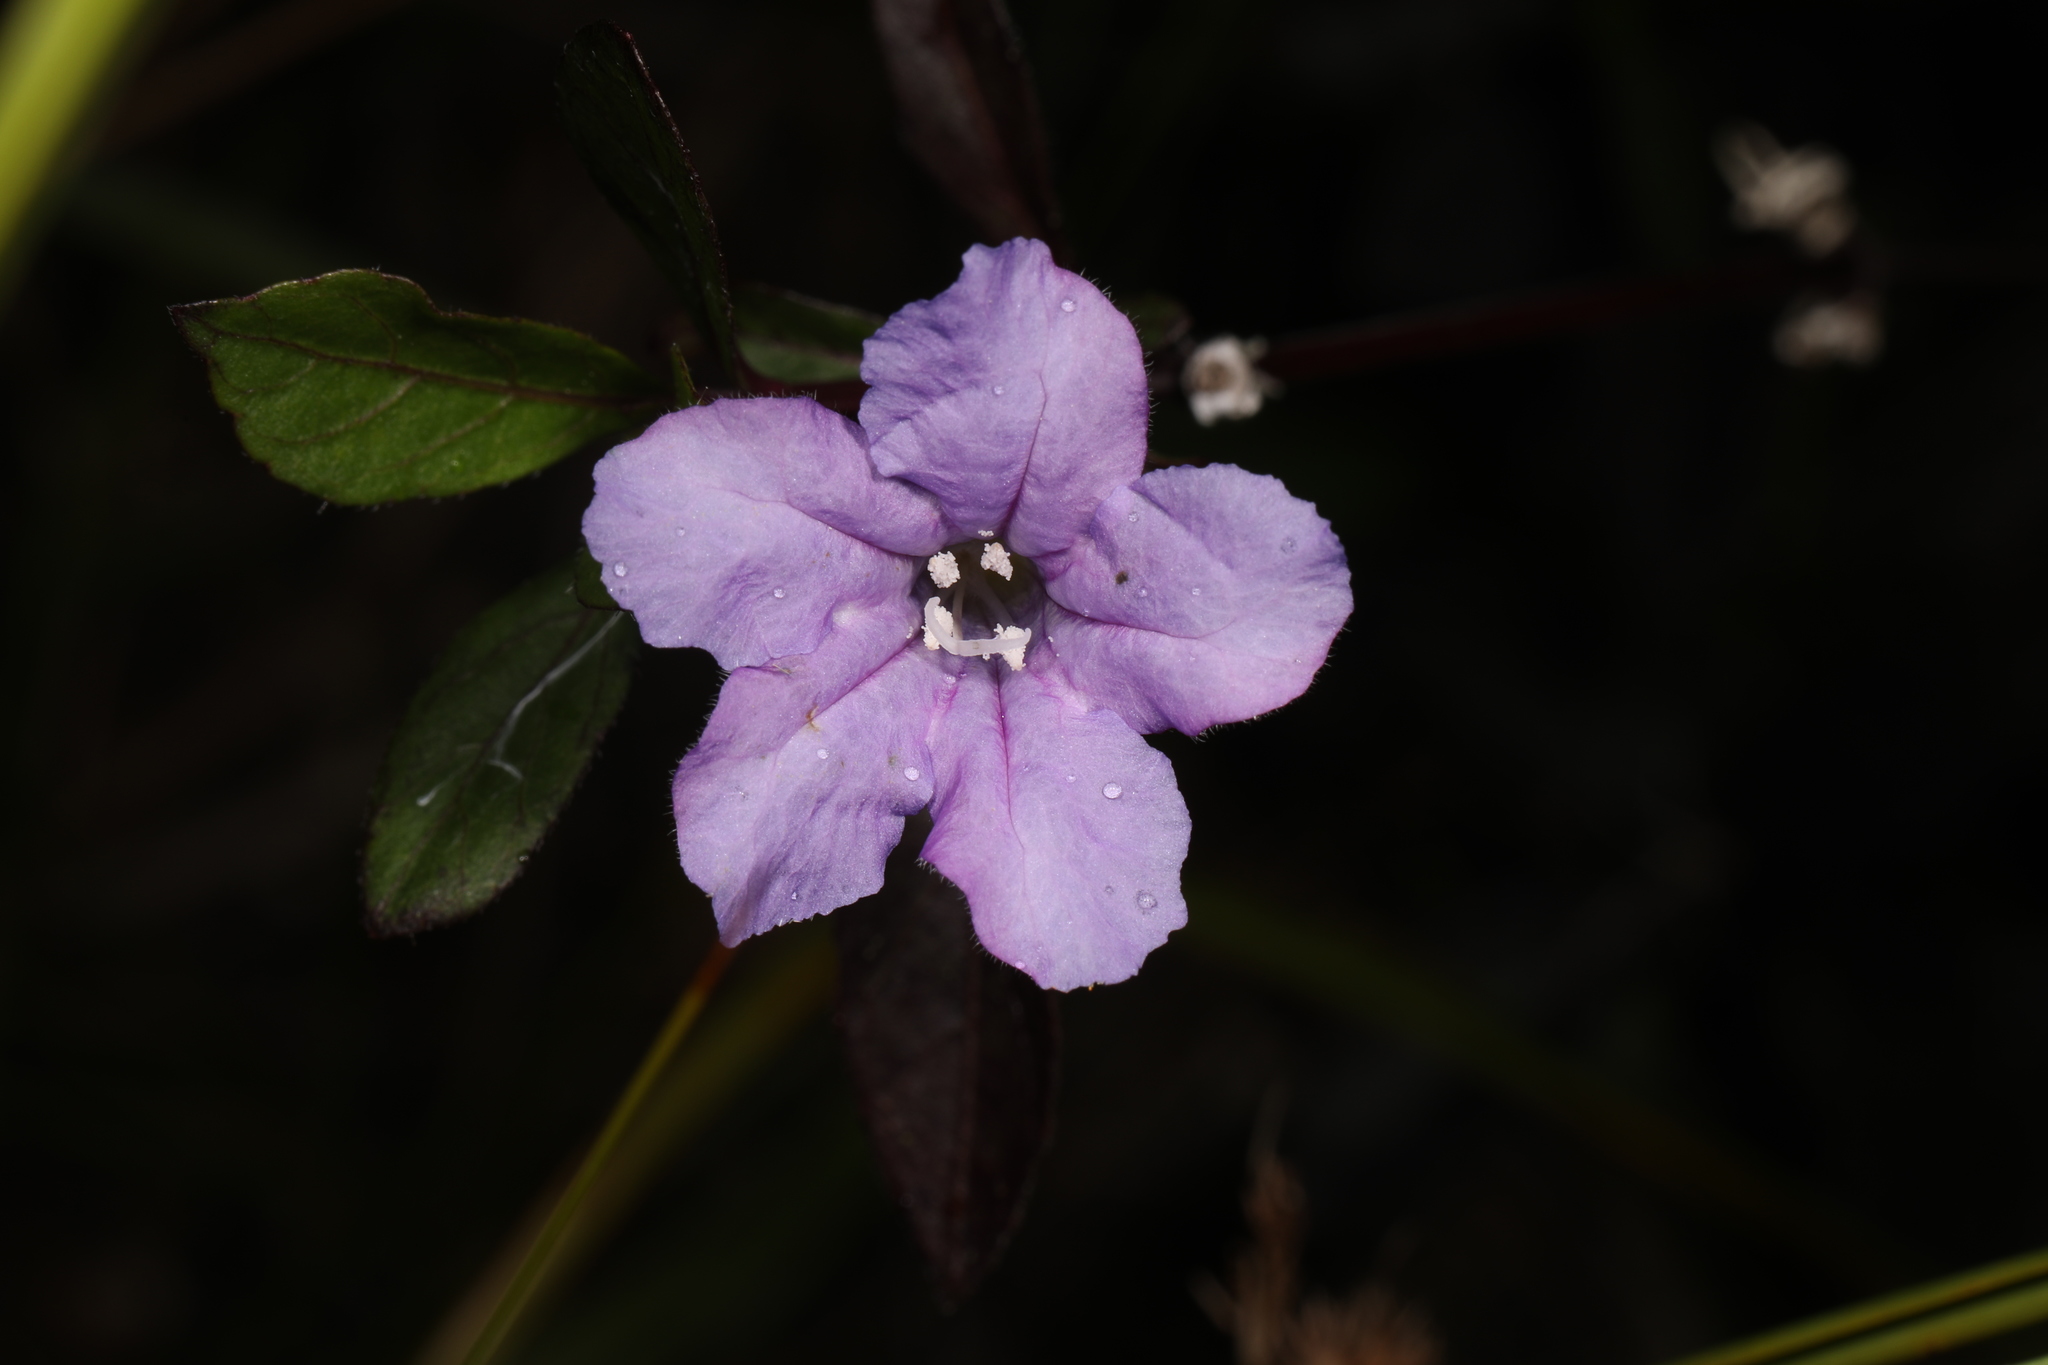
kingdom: Plantae
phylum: Tracheophyta
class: Magnoliopsida
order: Lamiales
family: Acanthaceae
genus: Ruellia
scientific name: Ruellia caroliniensis
